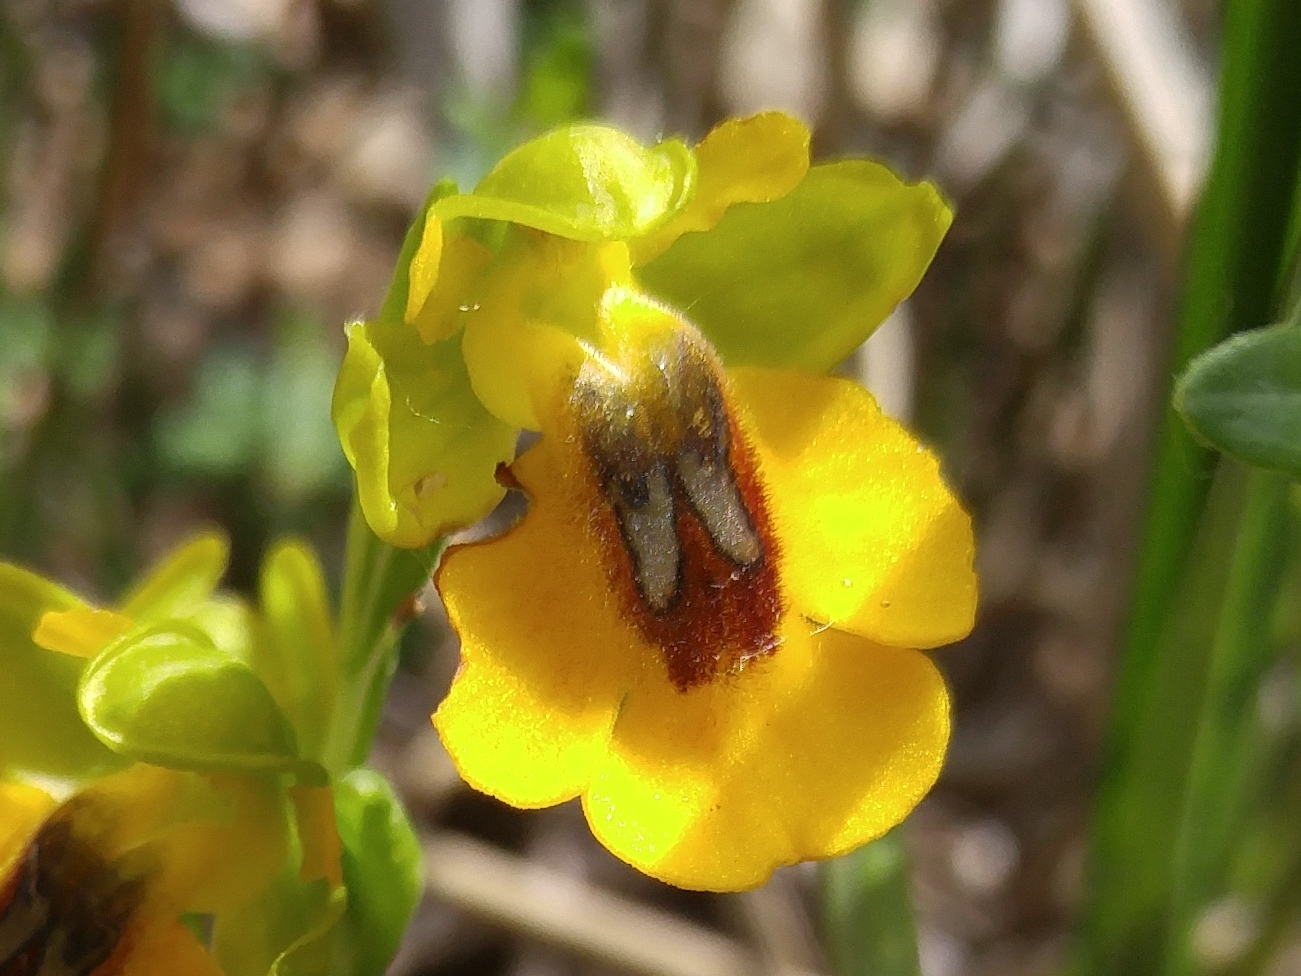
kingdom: Plantae
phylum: Tracheophyta
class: Liliopsida
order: Asparagales
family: Orchidaceae
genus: Ophrys
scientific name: Ophrys lutea
